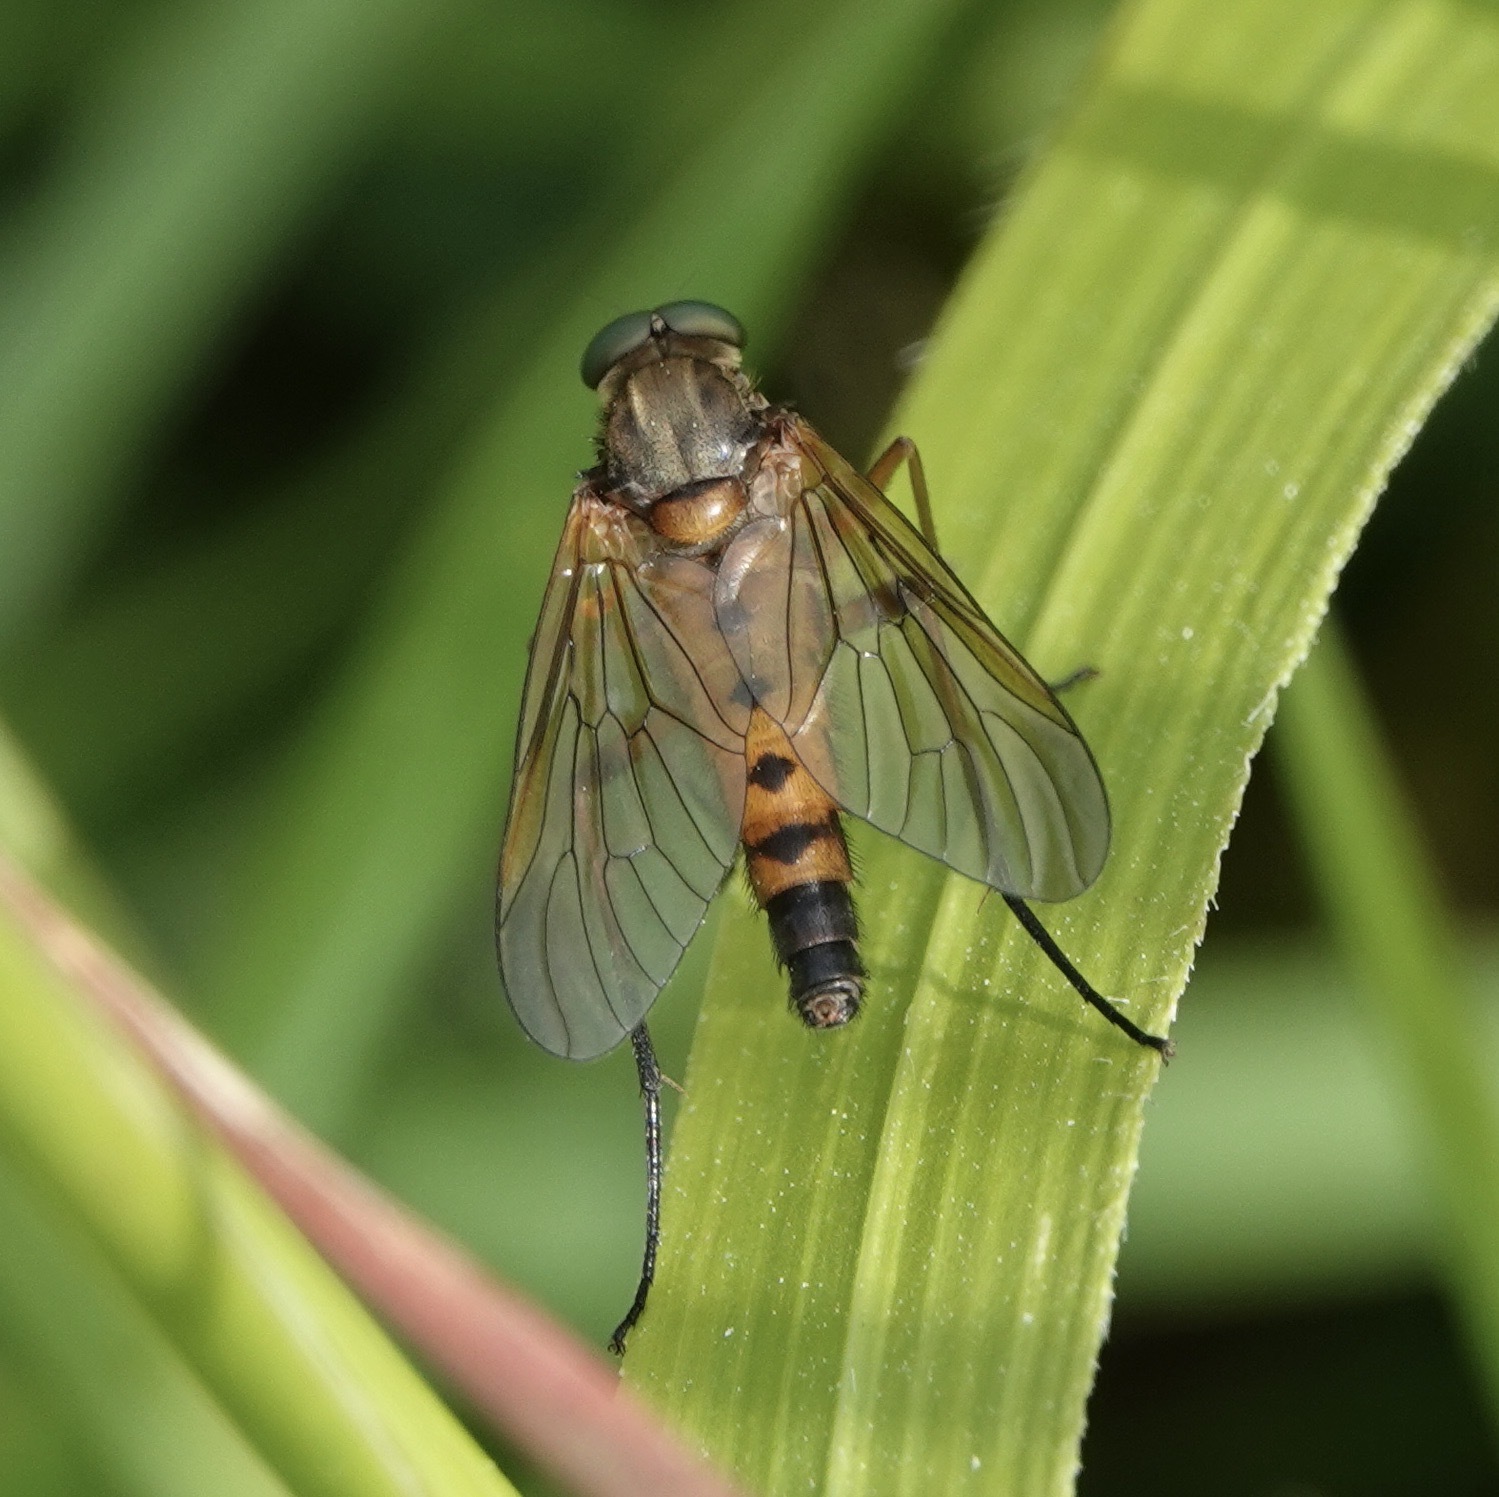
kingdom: Animalia
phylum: Arthropoda
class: Insecta
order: Diptera
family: Rhagionidae
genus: Rhagio
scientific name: Rhagio tringaria
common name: Marsh snipefly
